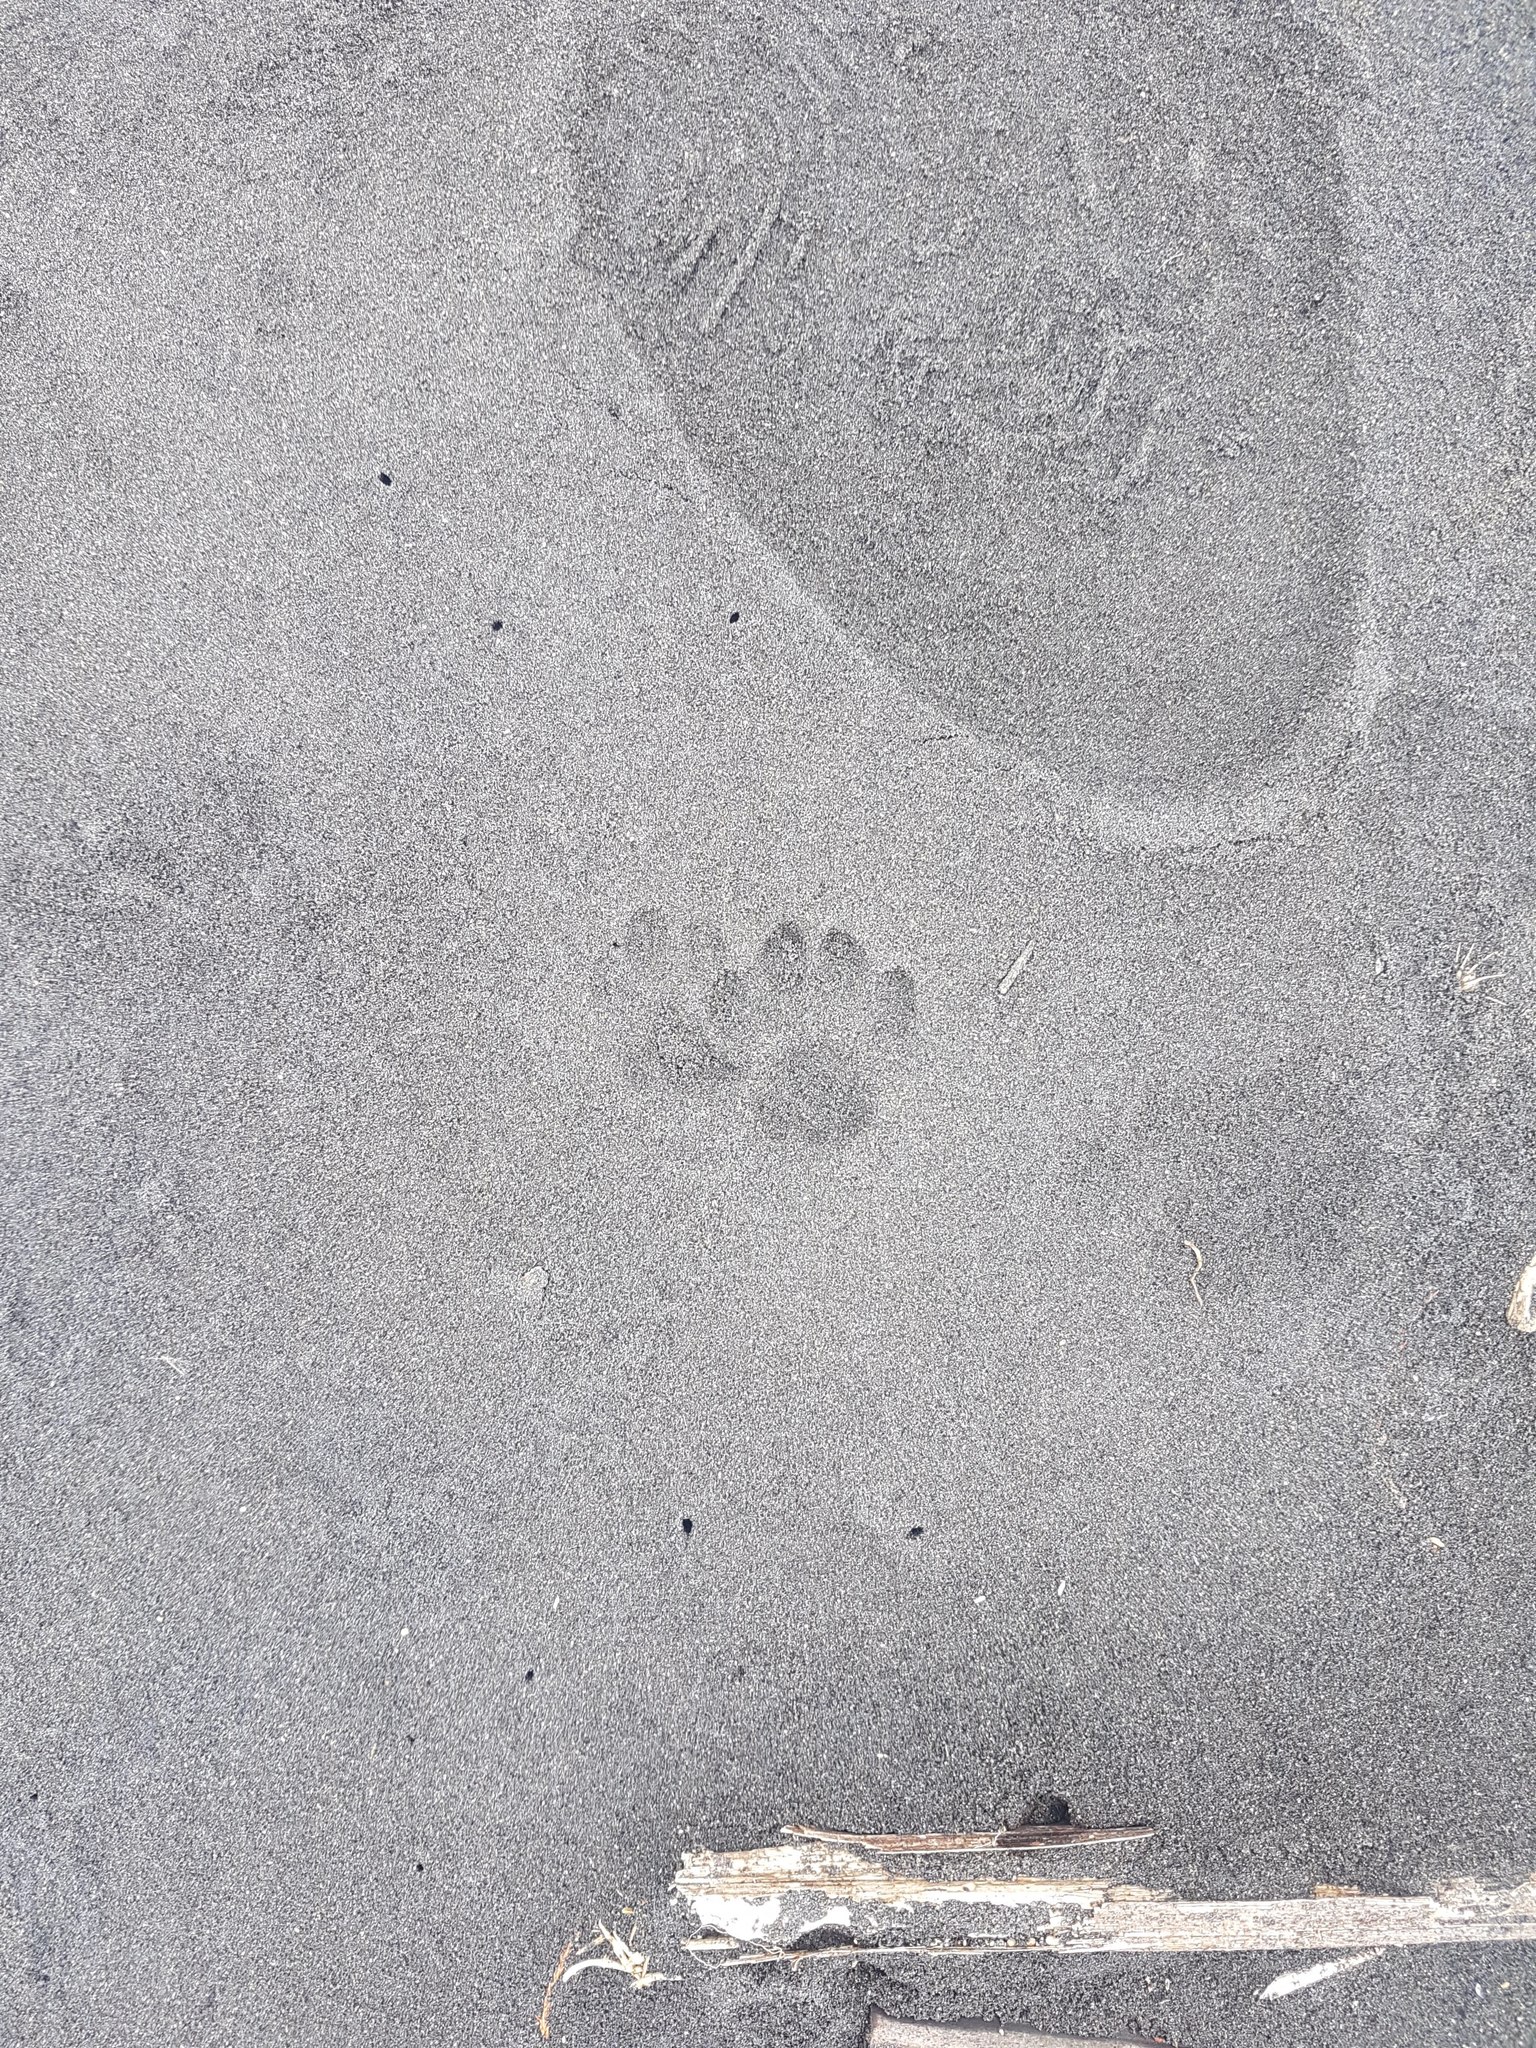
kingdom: Animalia
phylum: Chordata
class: Mammalia
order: Carnivora
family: Felidae
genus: Felis
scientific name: Felis catus
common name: Domestic cat
